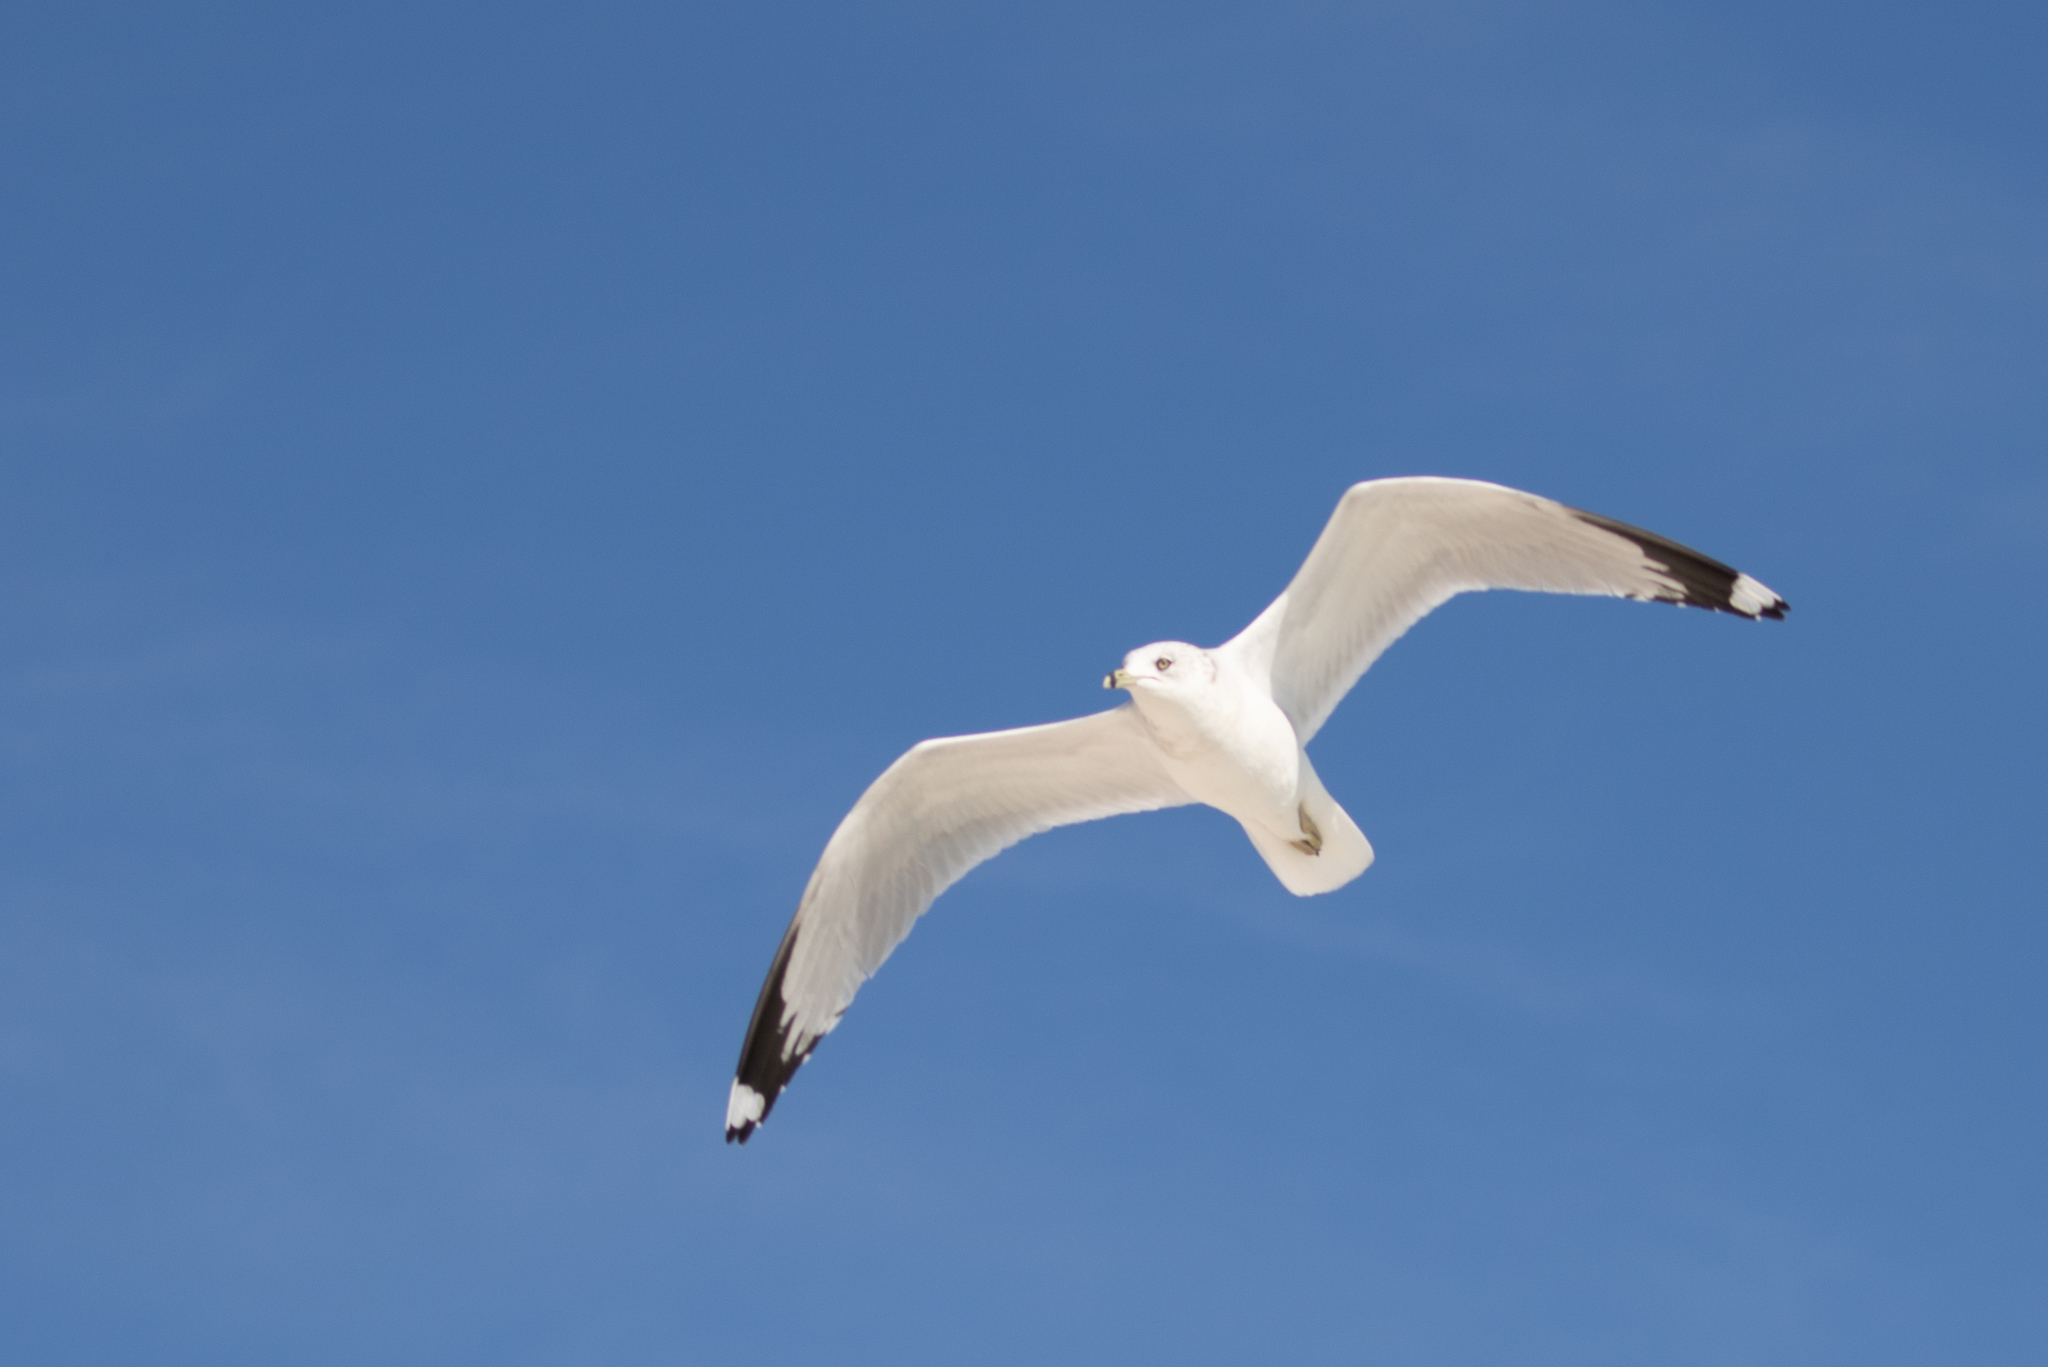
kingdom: Animalia
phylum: Chordata
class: Aves
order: Charadriiformes
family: Laridae
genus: Larus
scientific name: Larus delawarensis
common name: Ring-billed gull
